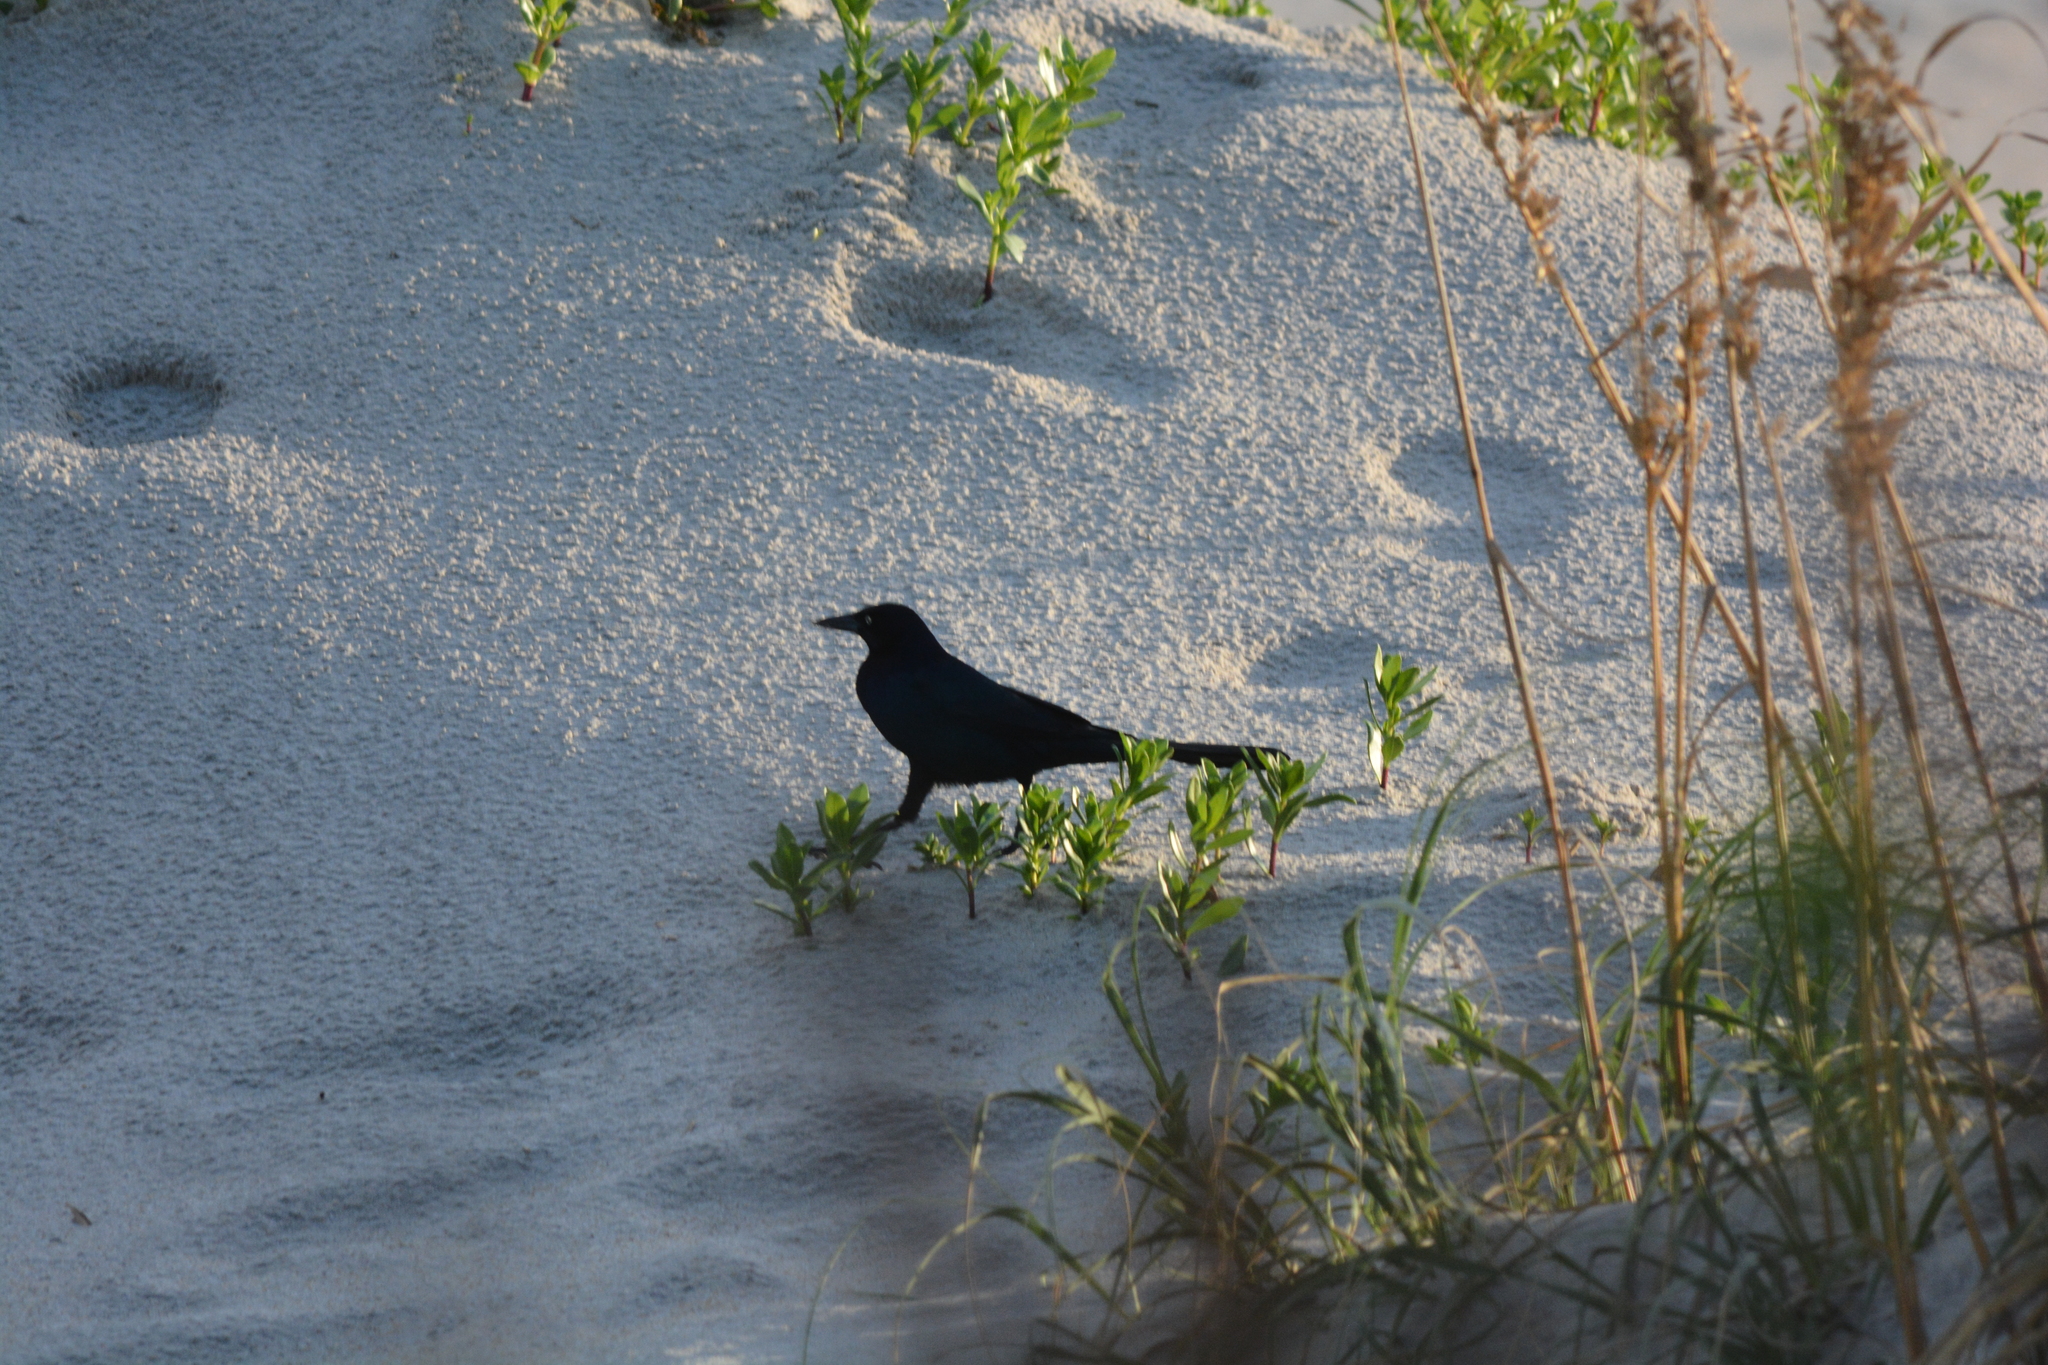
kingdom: Animalia
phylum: Chordata
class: Aves
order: Passeriformes
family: Icteridae
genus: Quiscalus
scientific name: Quiscalus major
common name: Boat-tailed grackle
